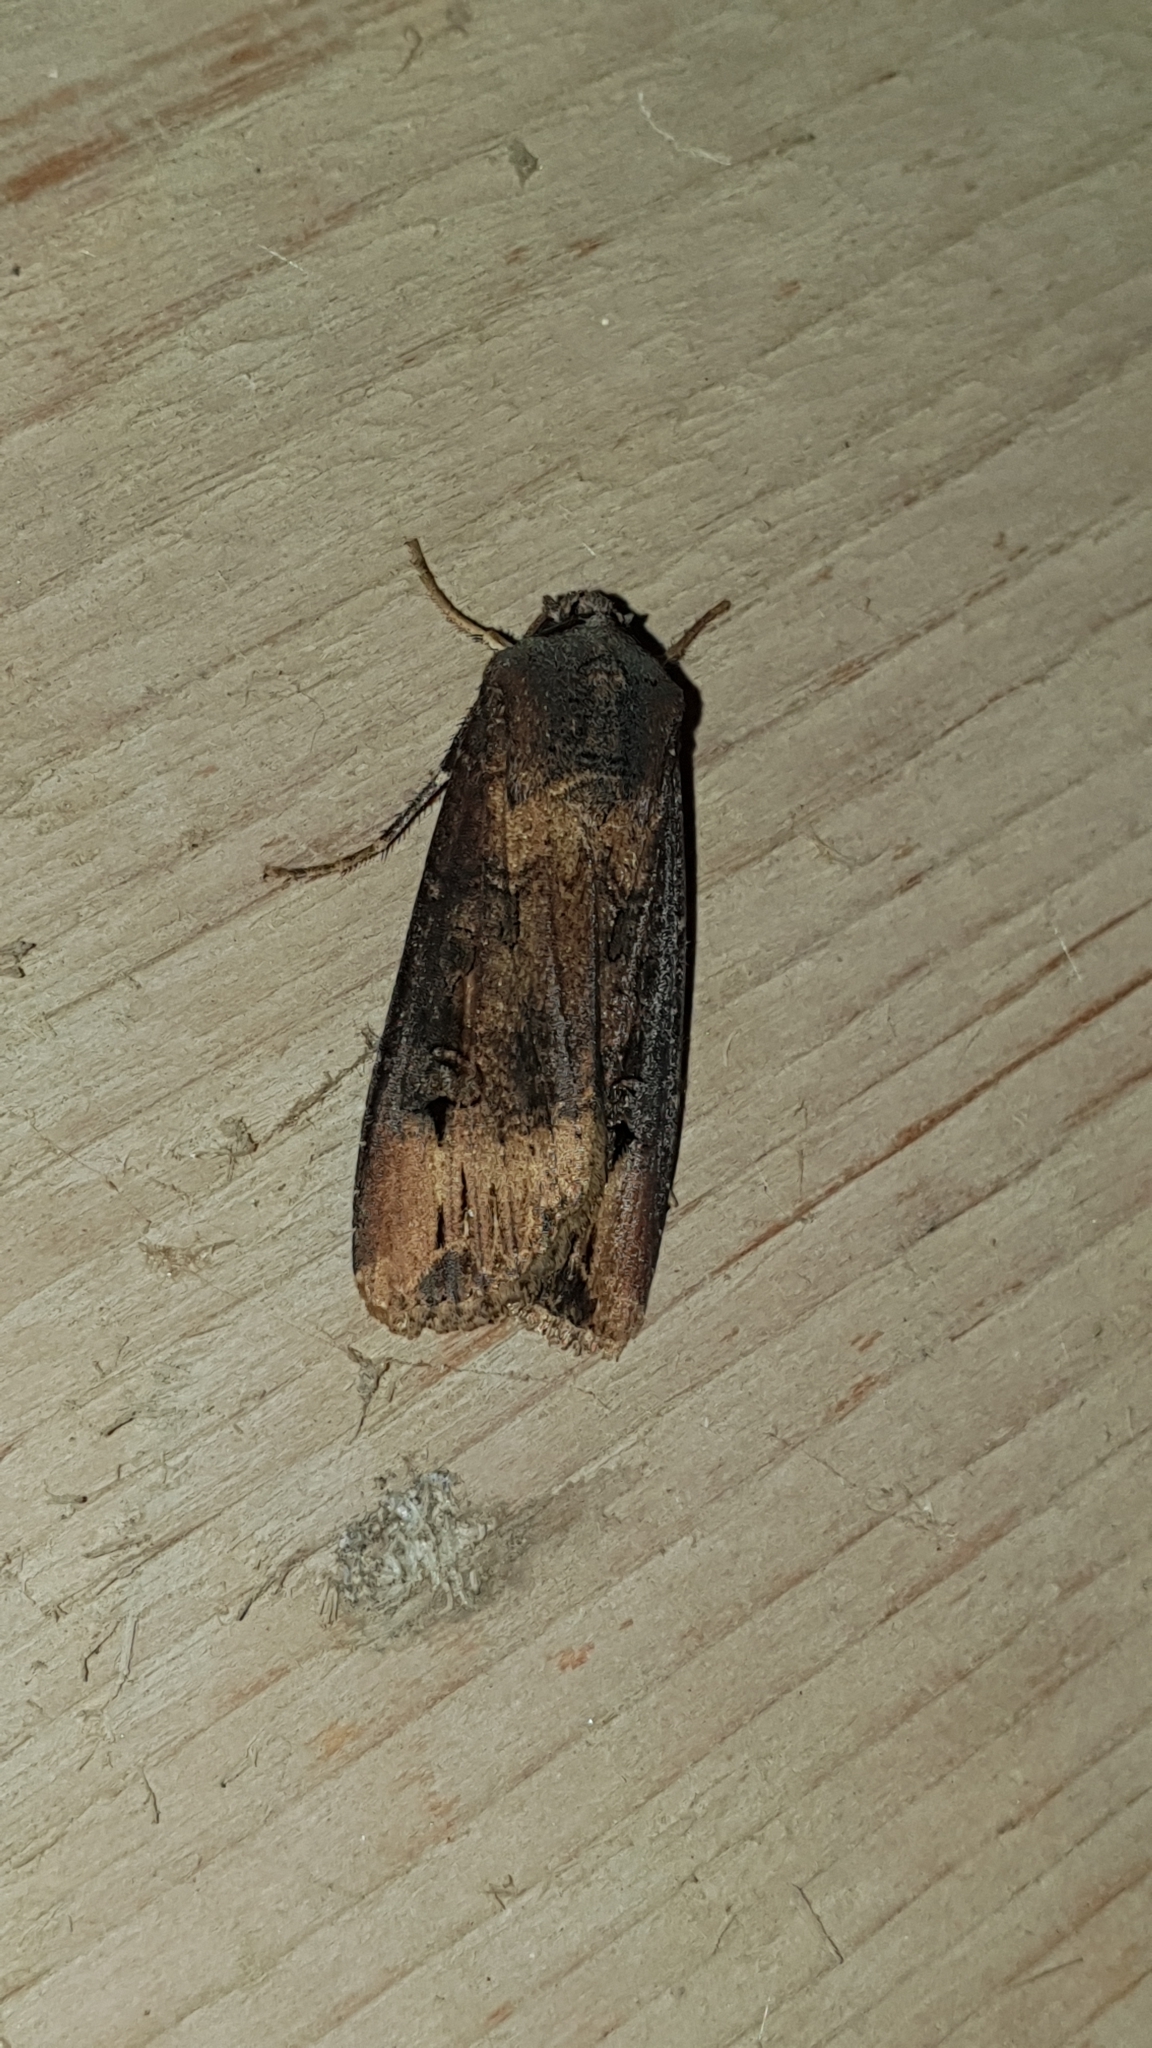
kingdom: Animalia
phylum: Arthropoda
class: Insecta
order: Lepidoptera
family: Noctuidae
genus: Agrotis
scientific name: Agrotis ipsilon
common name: Dark sword-grass
